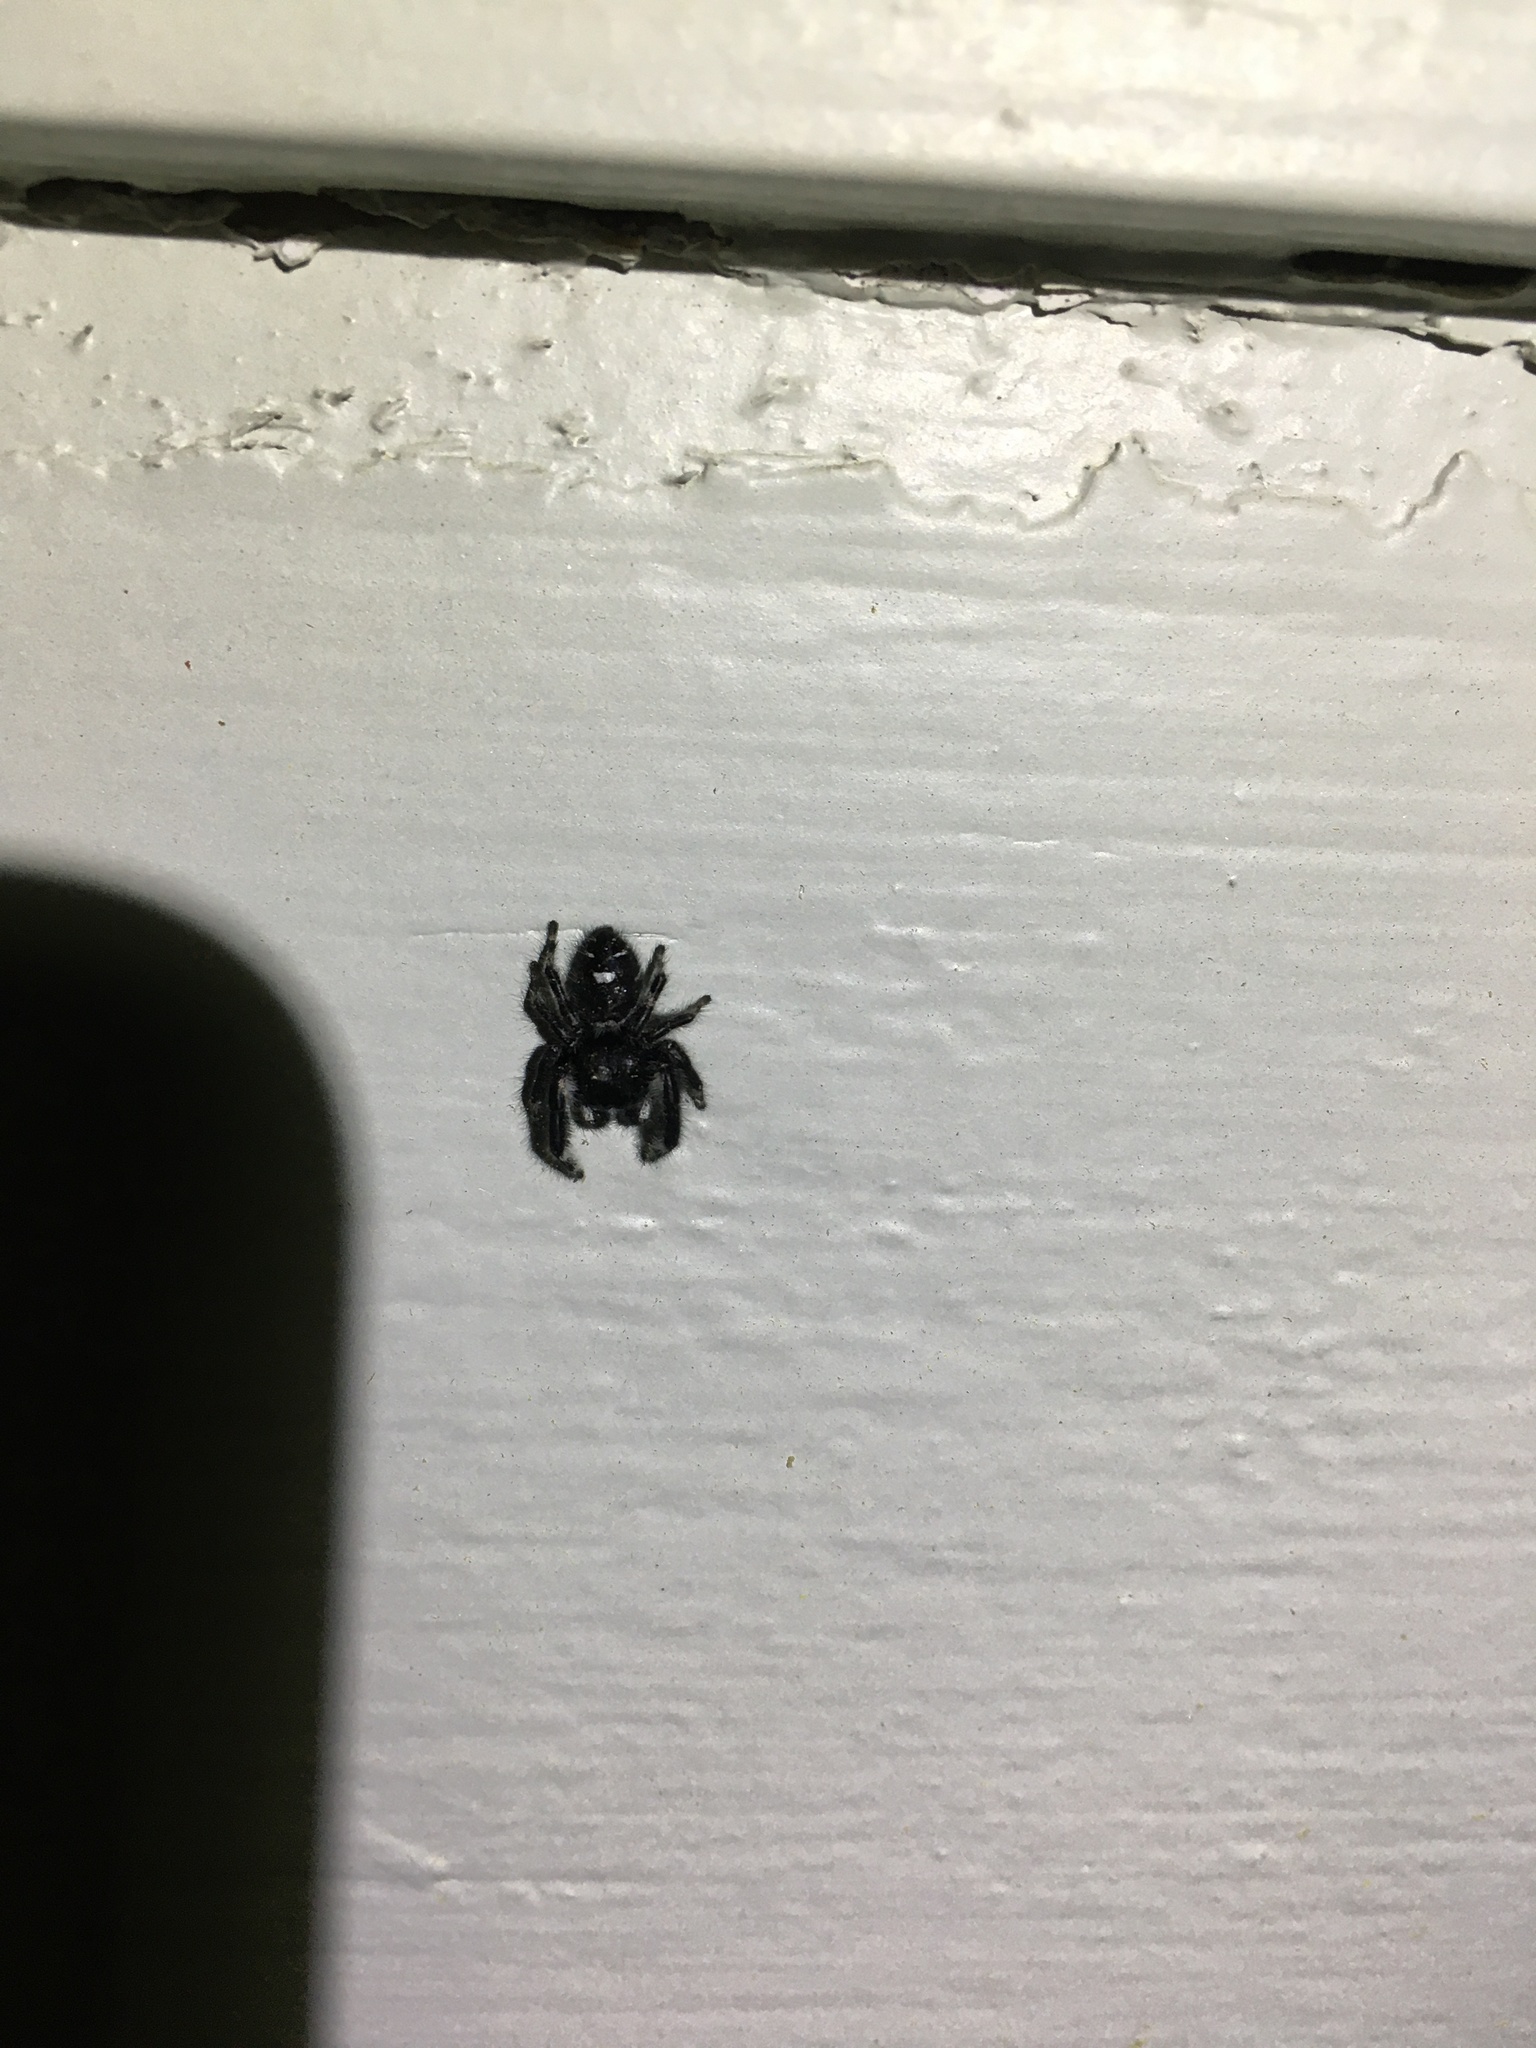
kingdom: Animalia
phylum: Arthropoda
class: Arachnida
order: Araneae
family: Salticidae
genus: Phidippus
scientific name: Phidippus audax
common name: Bold jumper
